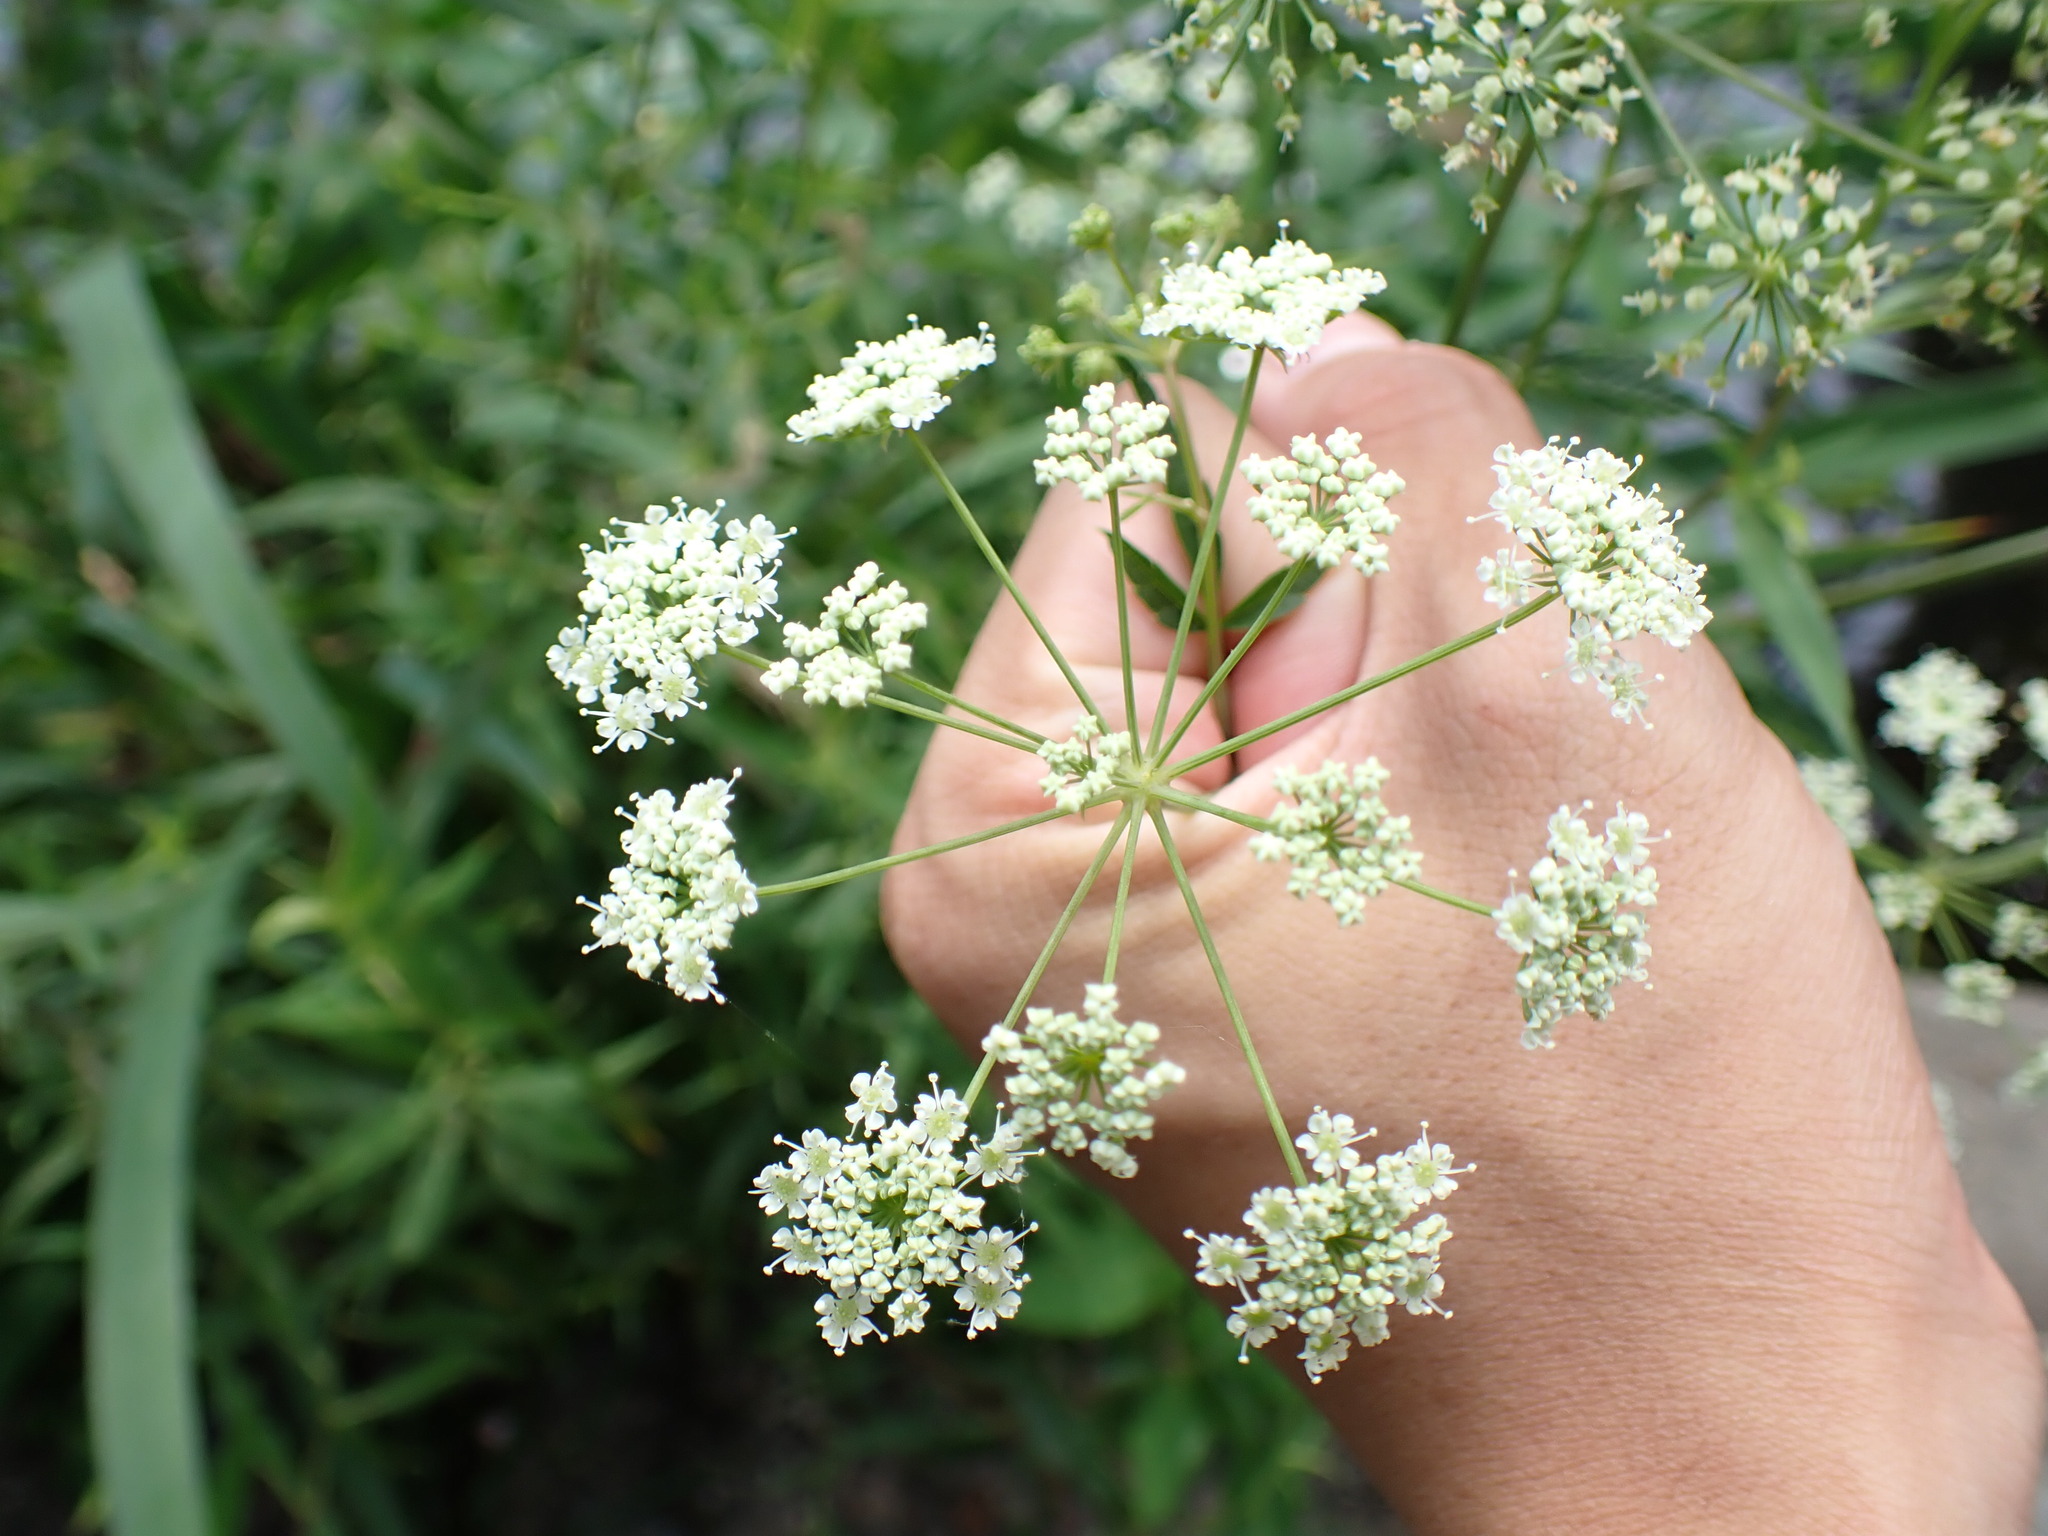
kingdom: Plantae
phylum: Tracheophyta
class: Magnoliopsida
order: Apiales
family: Apiaceae
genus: Cicuta
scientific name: Cicuta maculata
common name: Spotted cowbane
